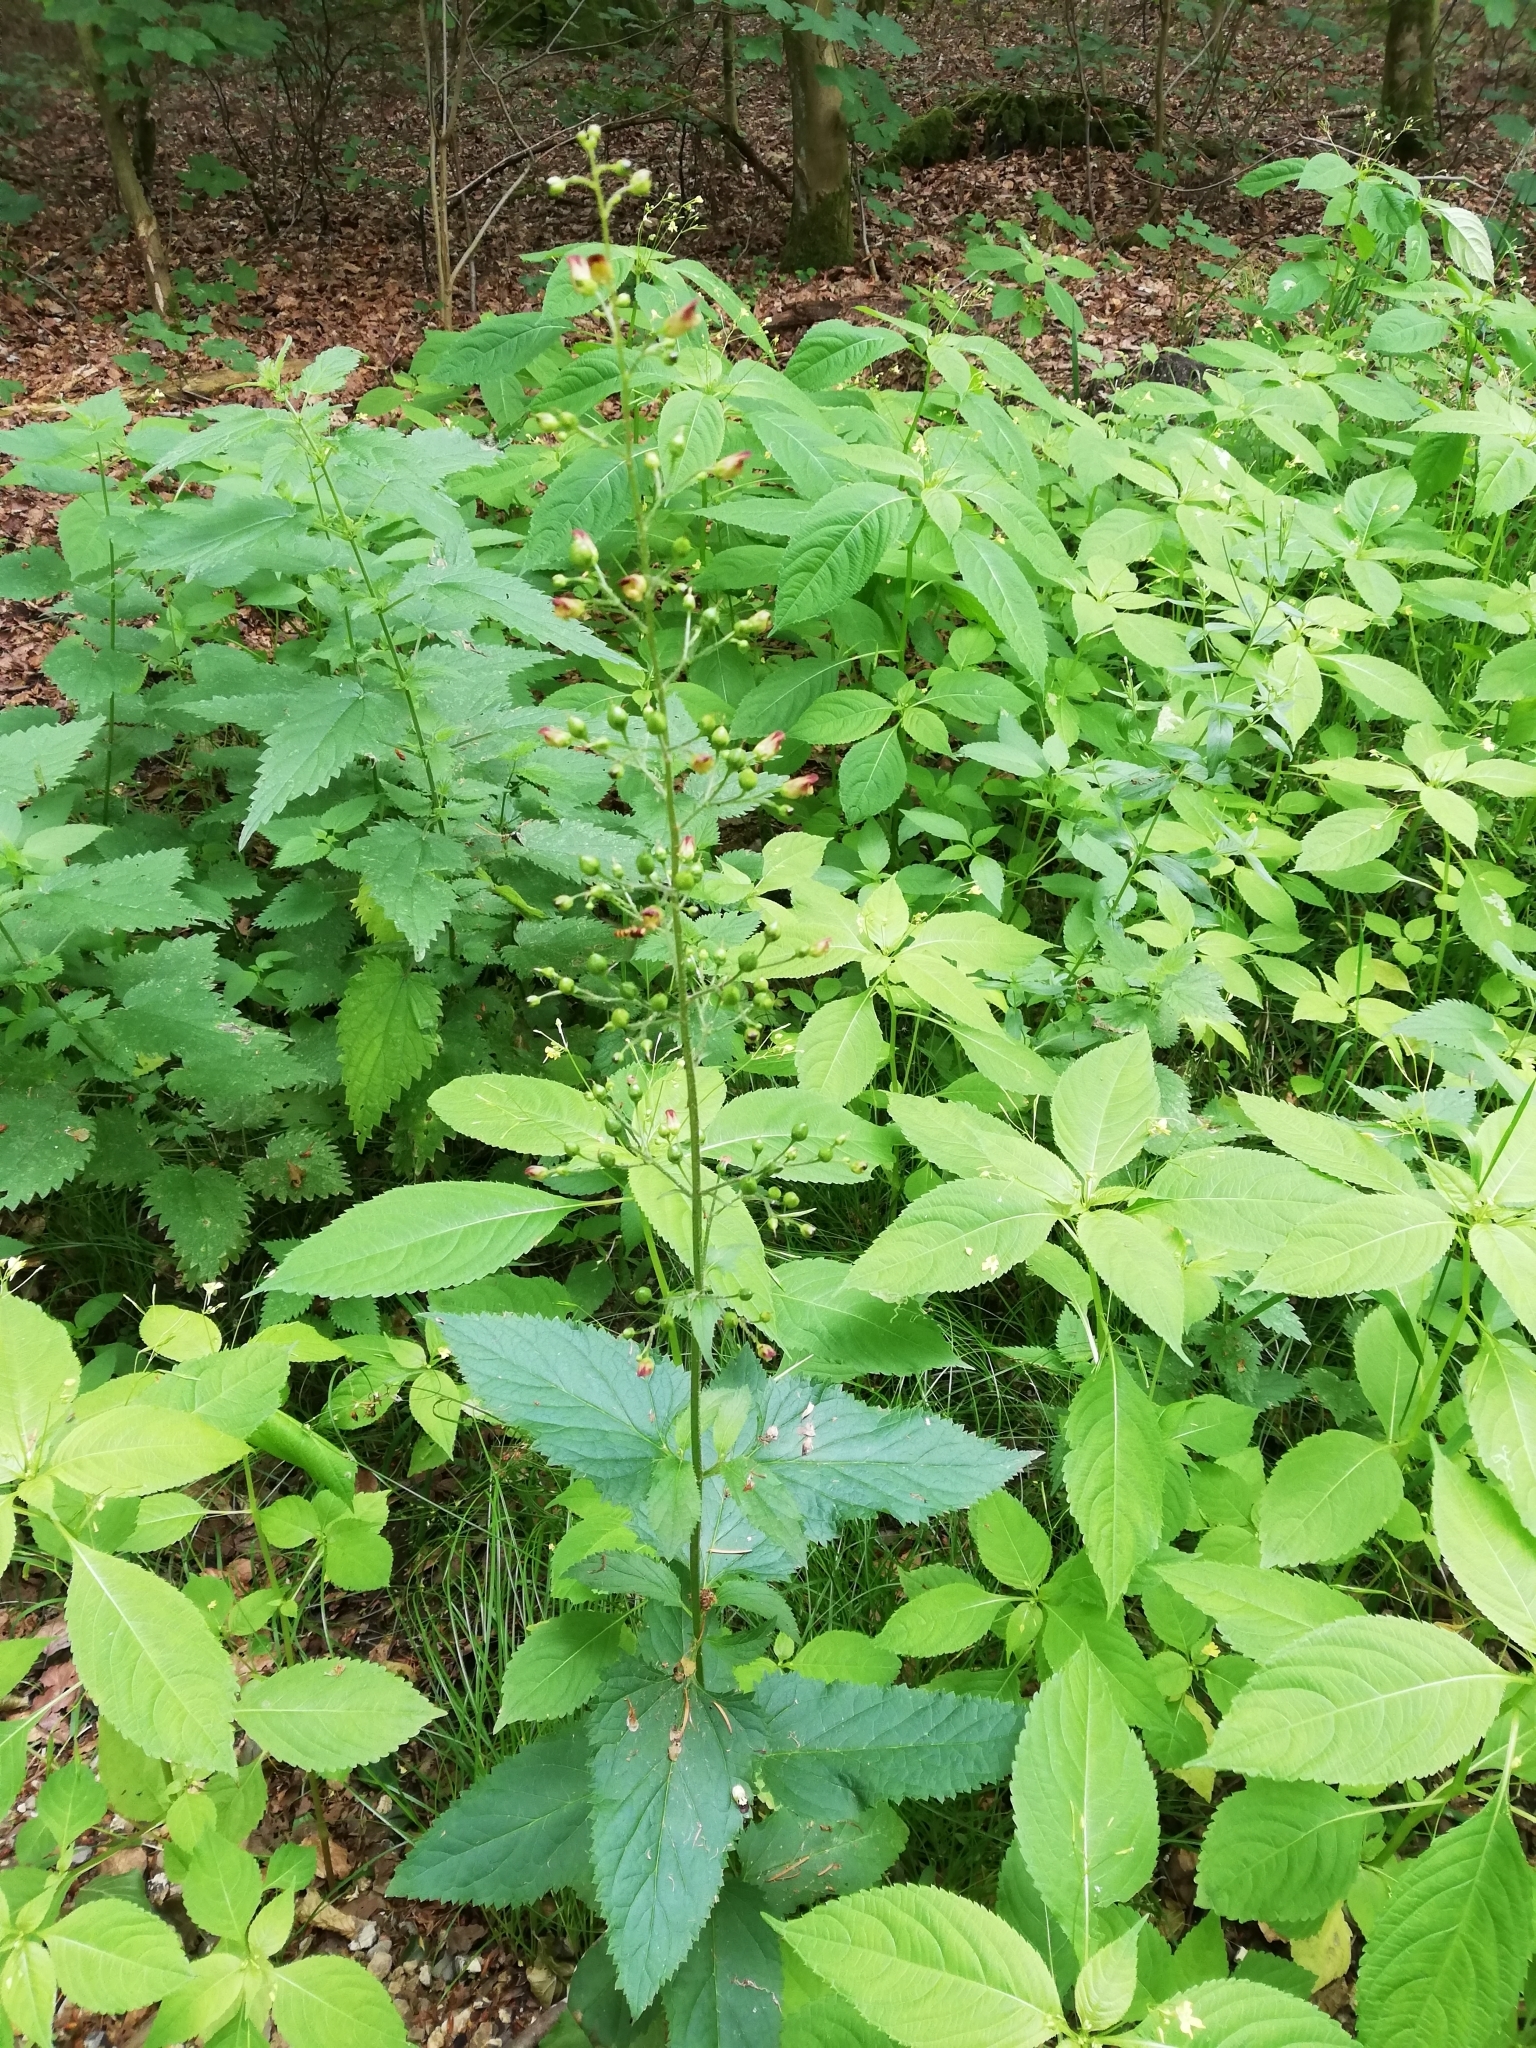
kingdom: Plantae
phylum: Tracheophyta
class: Magnoliopsida
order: Lamiales
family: Scrophulariaceae
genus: Scrophularia
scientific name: Scrophularia nodosa
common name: Common figwort
